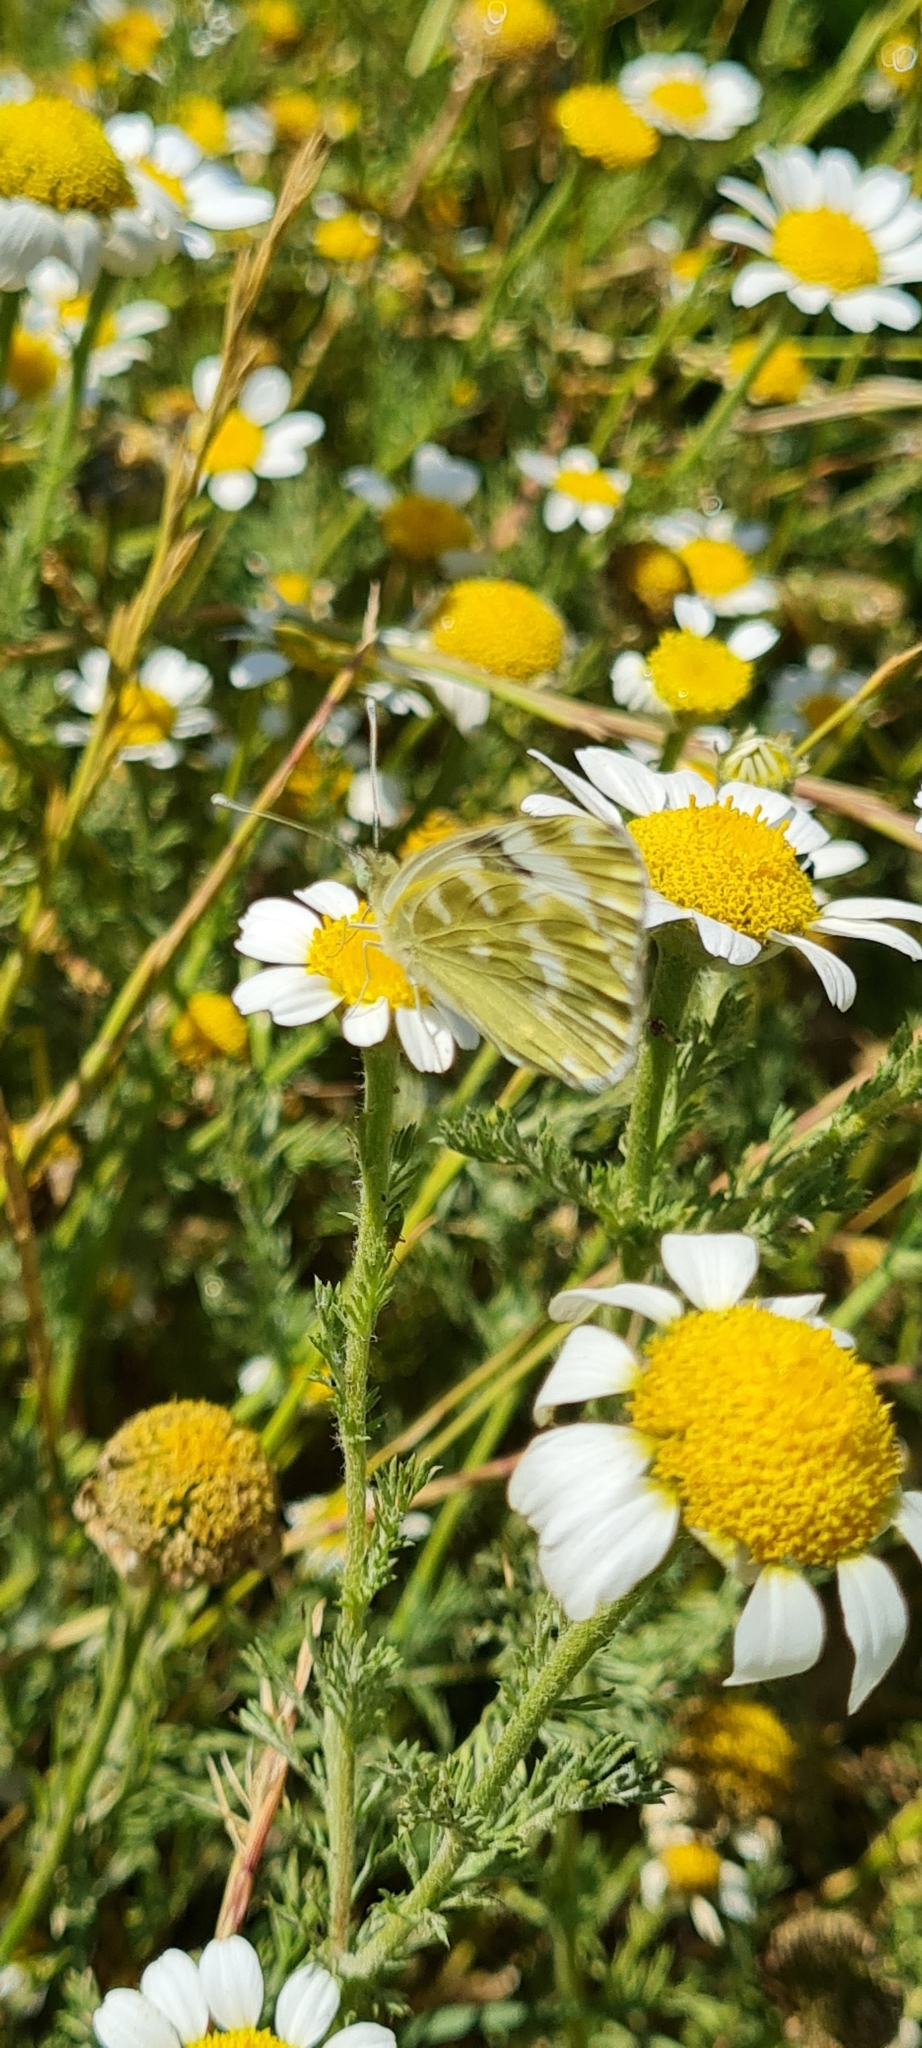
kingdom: Animalia
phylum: Arthropoda
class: Insecta
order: Lepidoptera
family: Pieridae
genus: Pontia
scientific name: Pontia daplidice
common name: Bath white
